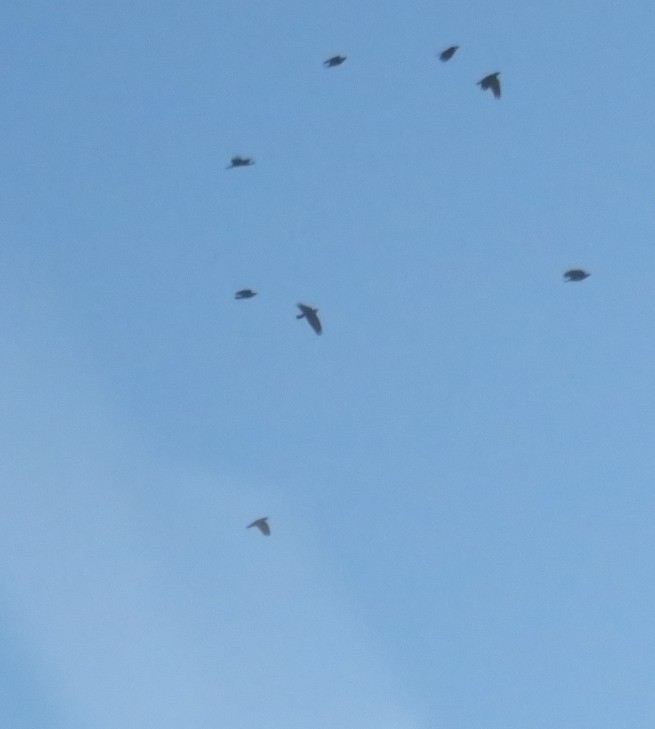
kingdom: Animalia
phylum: Chordata
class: Aves
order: Passeriformes
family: Corvidae
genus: Corvus
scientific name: Corvus brachyrhynchos
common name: American crow
